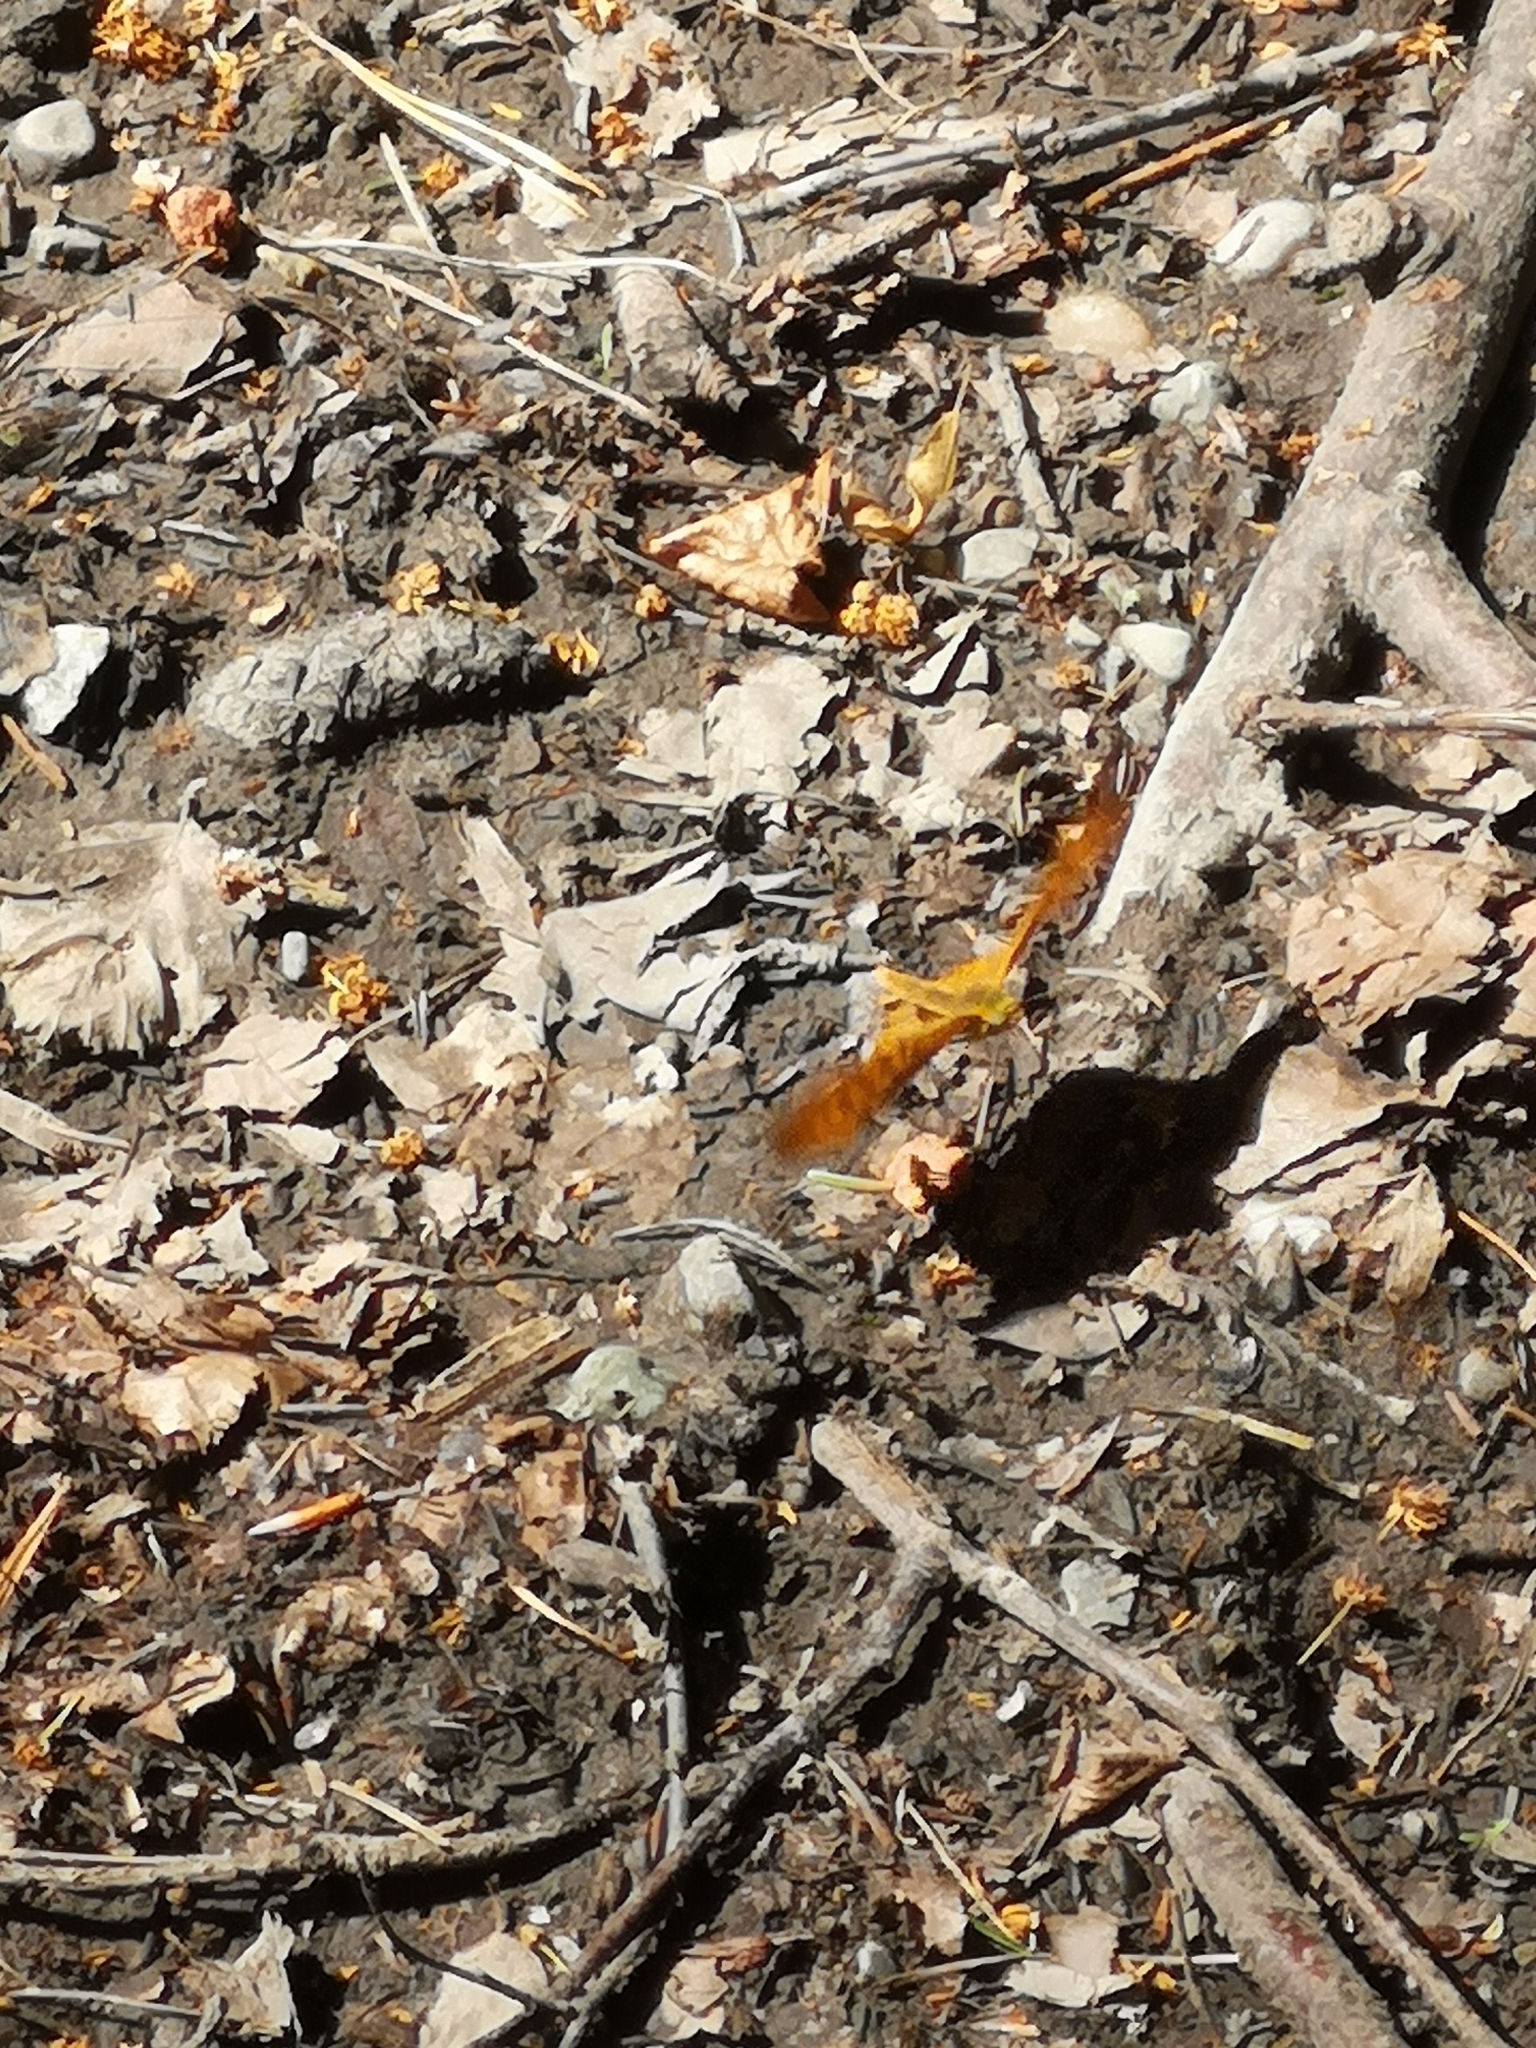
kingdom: Animalia
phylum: Arthropoda
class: Insecta
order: Lepidoptera
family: Nymphalidae
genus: Argynnis
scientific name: Argynnis paphia
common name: Silver-washed fritillary
